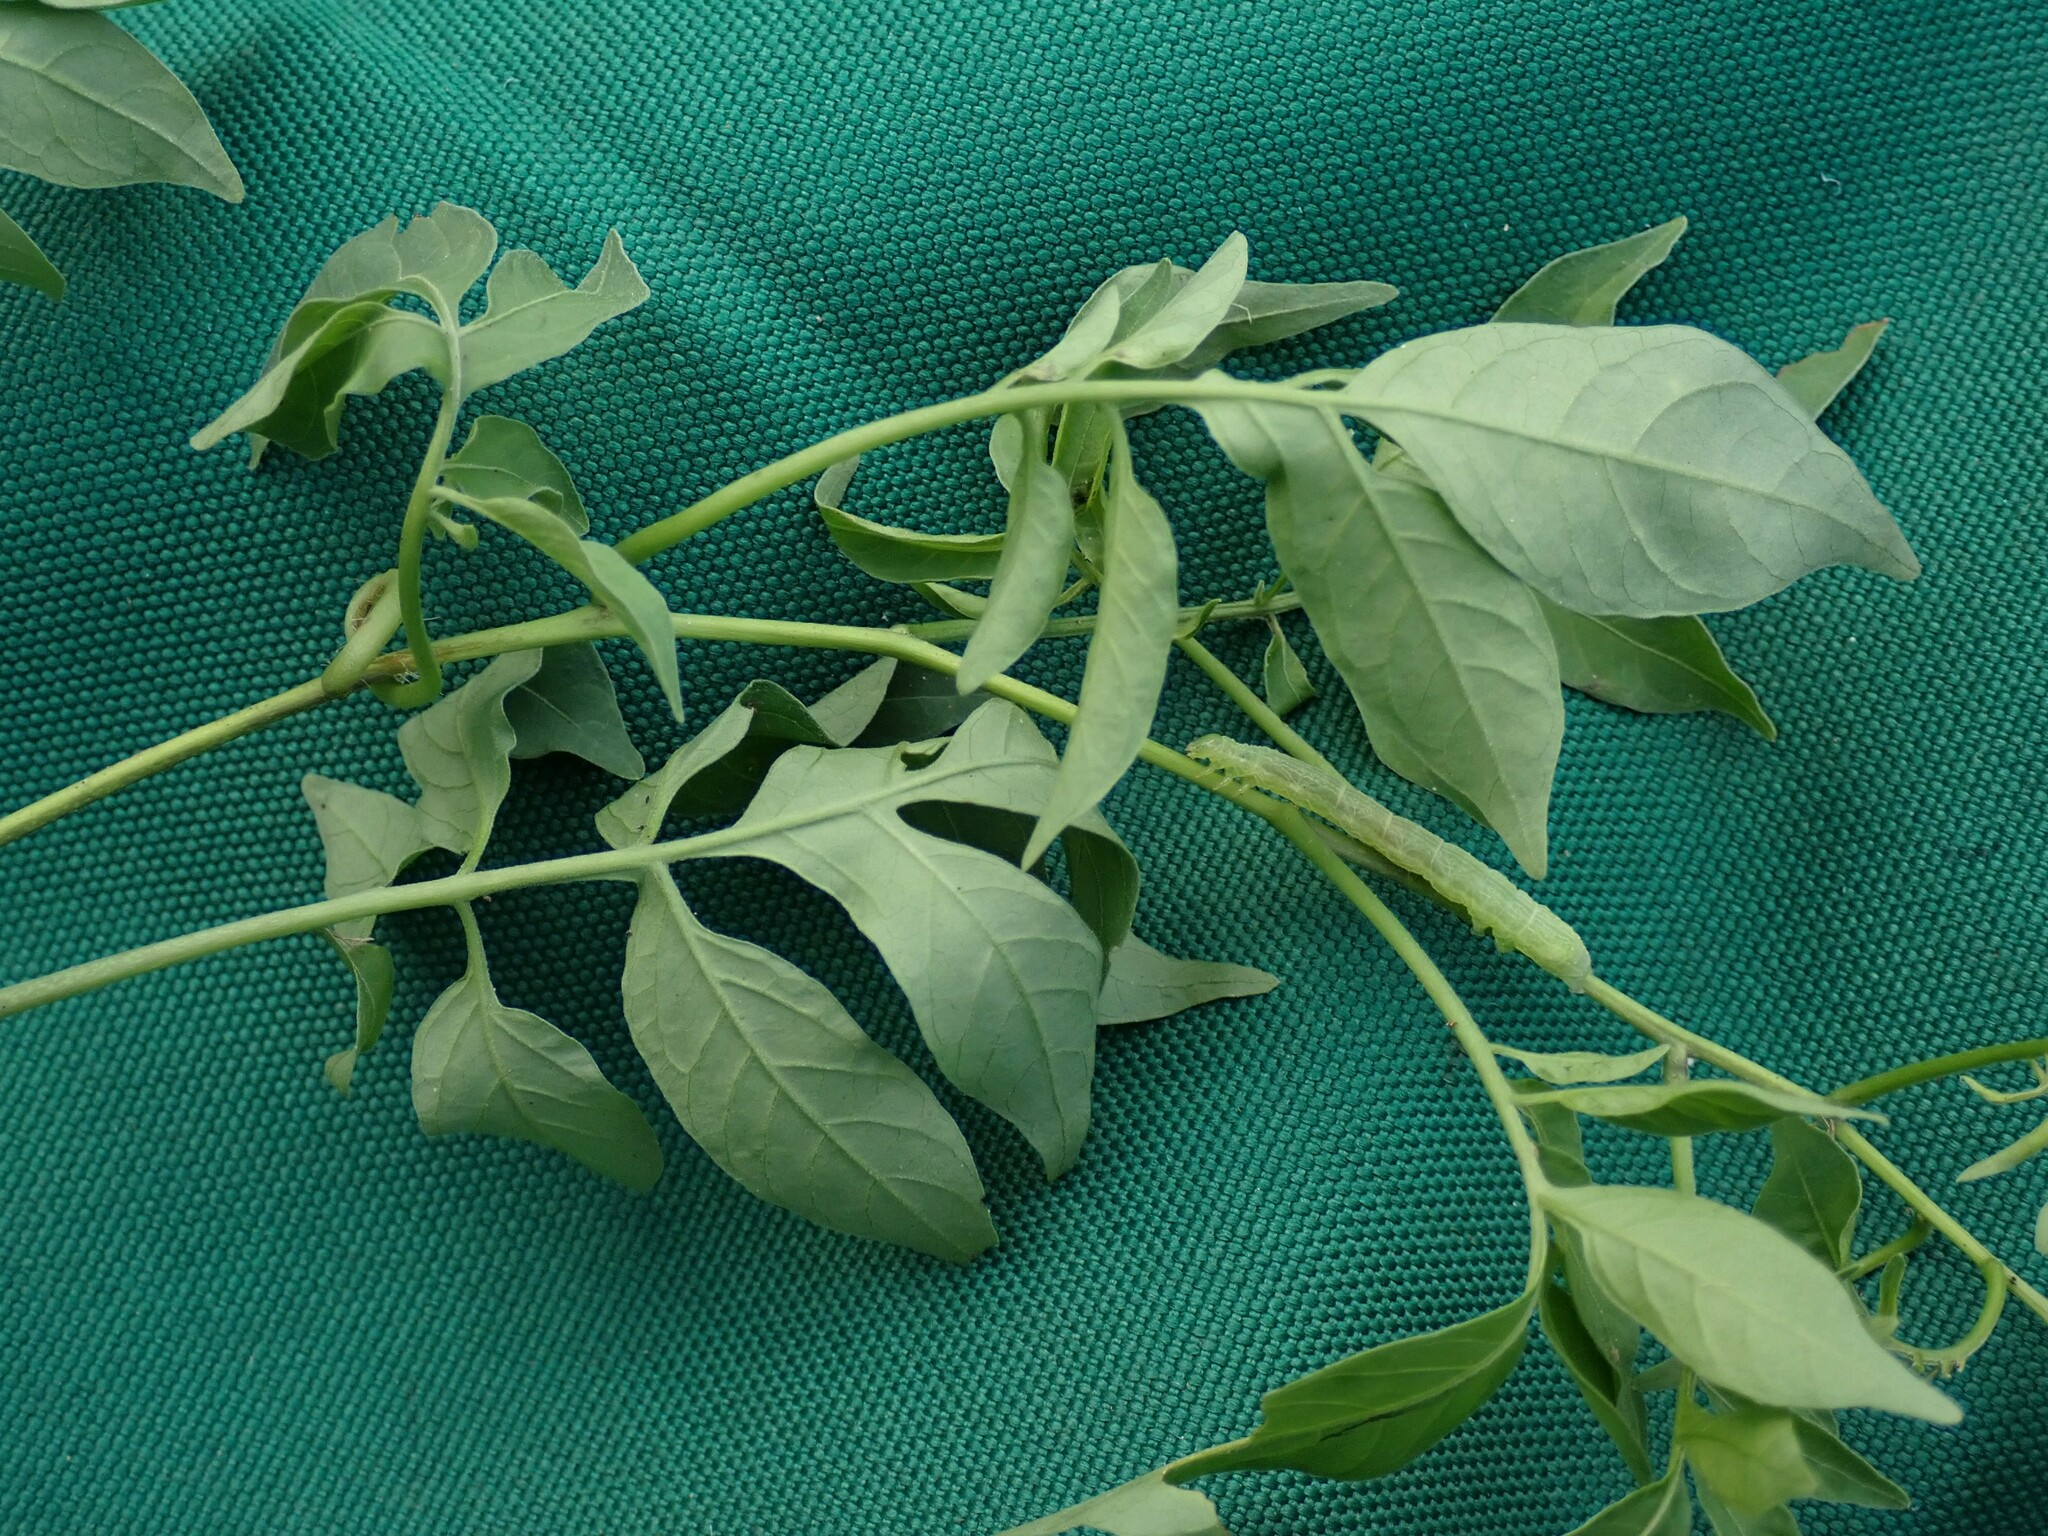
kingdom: Plantae
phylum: Tracheophyta
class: Magnoliopsida
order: Solanales
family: Solanaceae
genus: Solanum
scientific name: Solanum seaforthianum
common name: Brazilian nightshade
